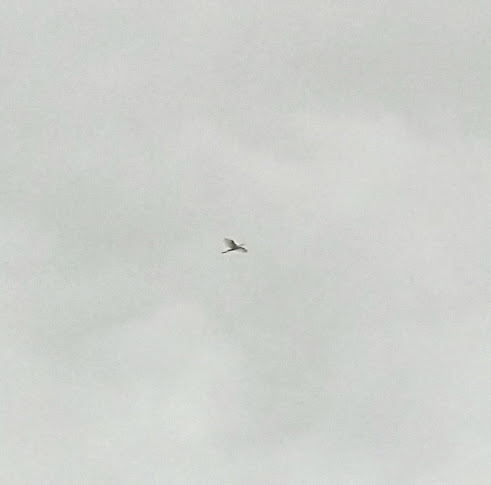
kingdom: Animalia
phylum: Chordata
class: Aves
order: Pelecaniformes
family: Ardeidae
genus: Bubulcus
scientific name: Bubulcus coromandus
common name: Eastern cattle egret
